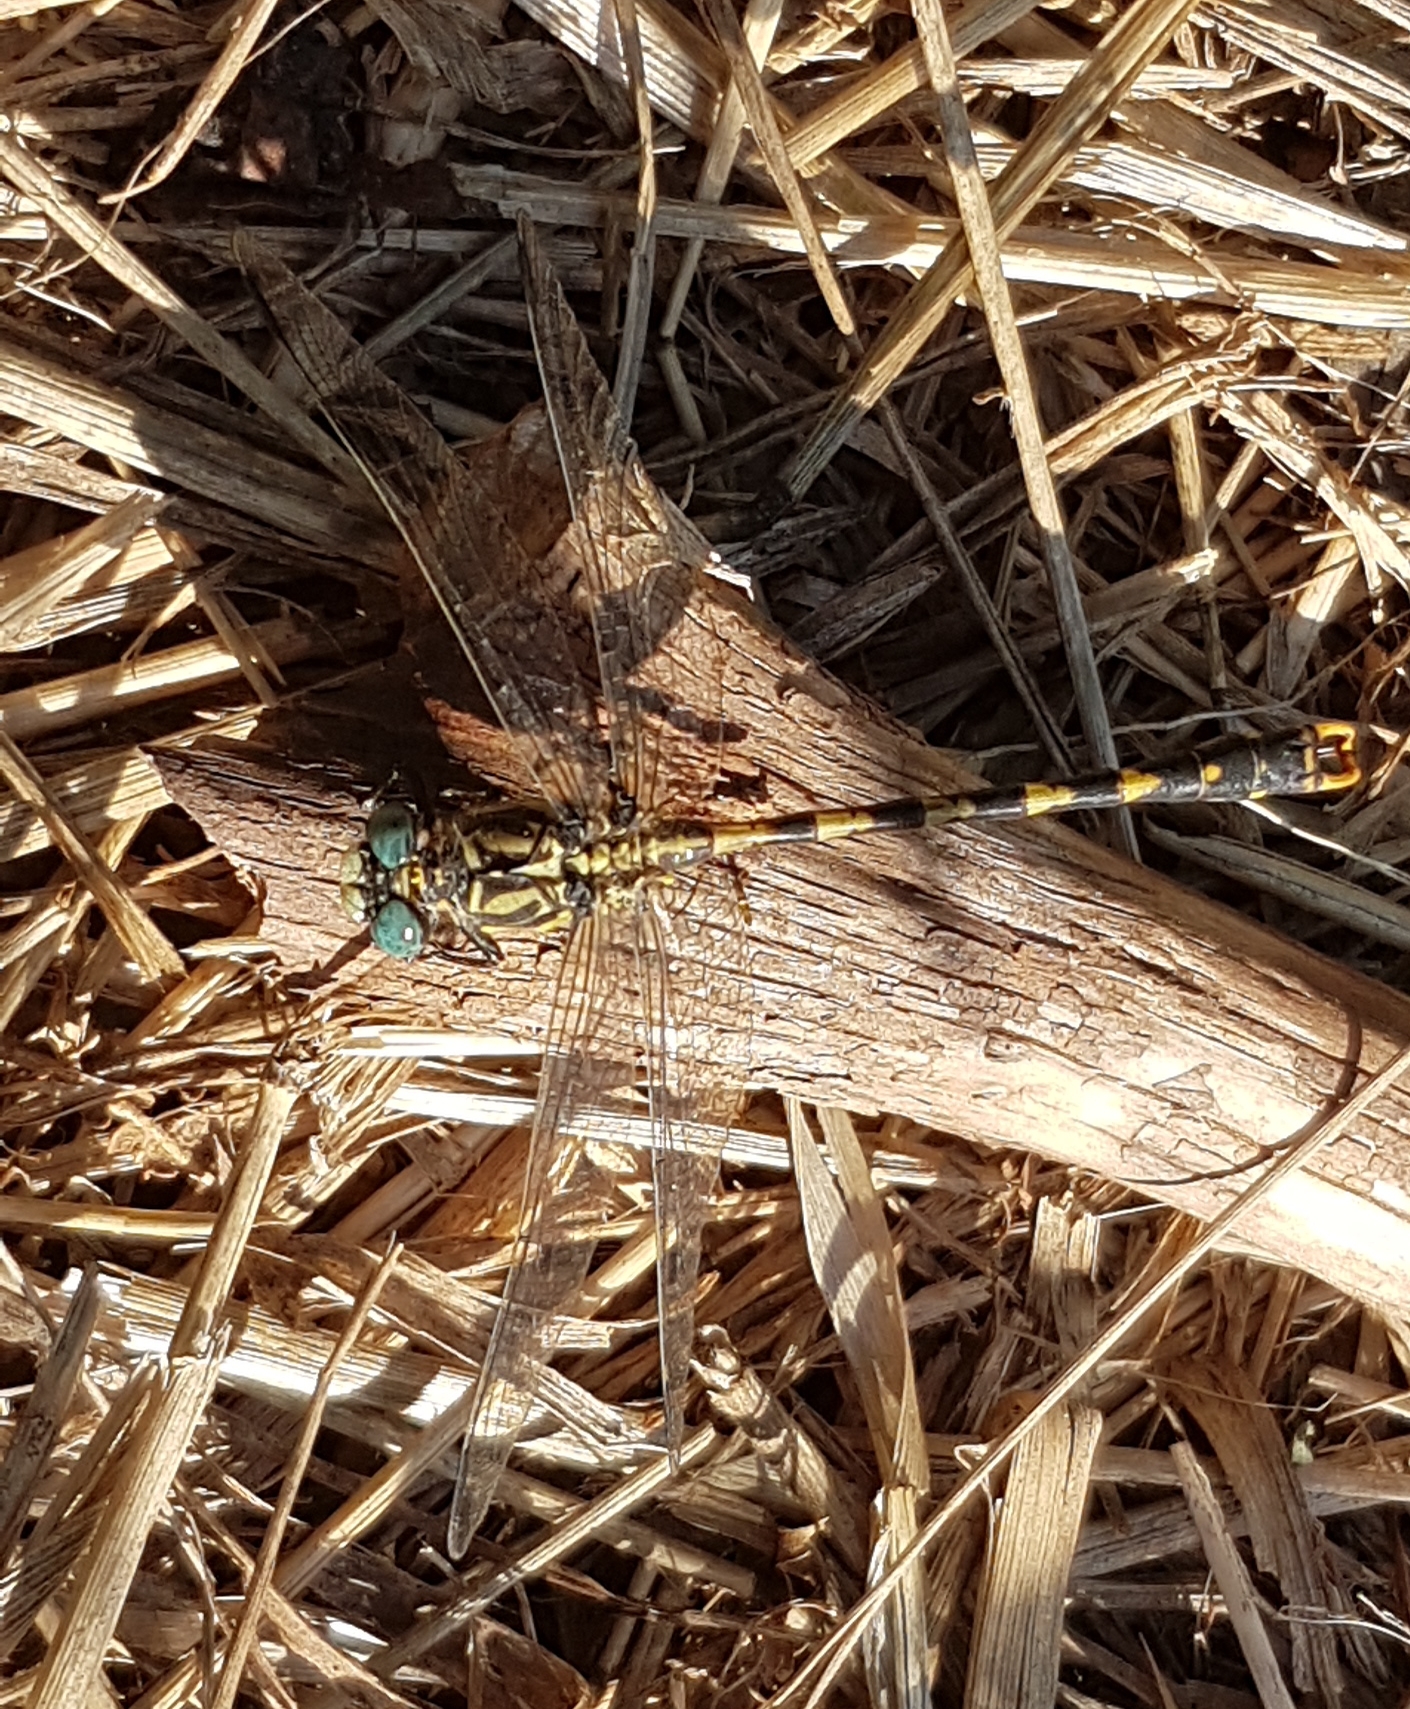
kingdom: Animalia
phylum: Arthropoda
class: Insecta
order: Odonata
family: Gomphidae
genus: Onychogomphus
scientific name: Onychogomphus uncatus
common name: Large pincertail
